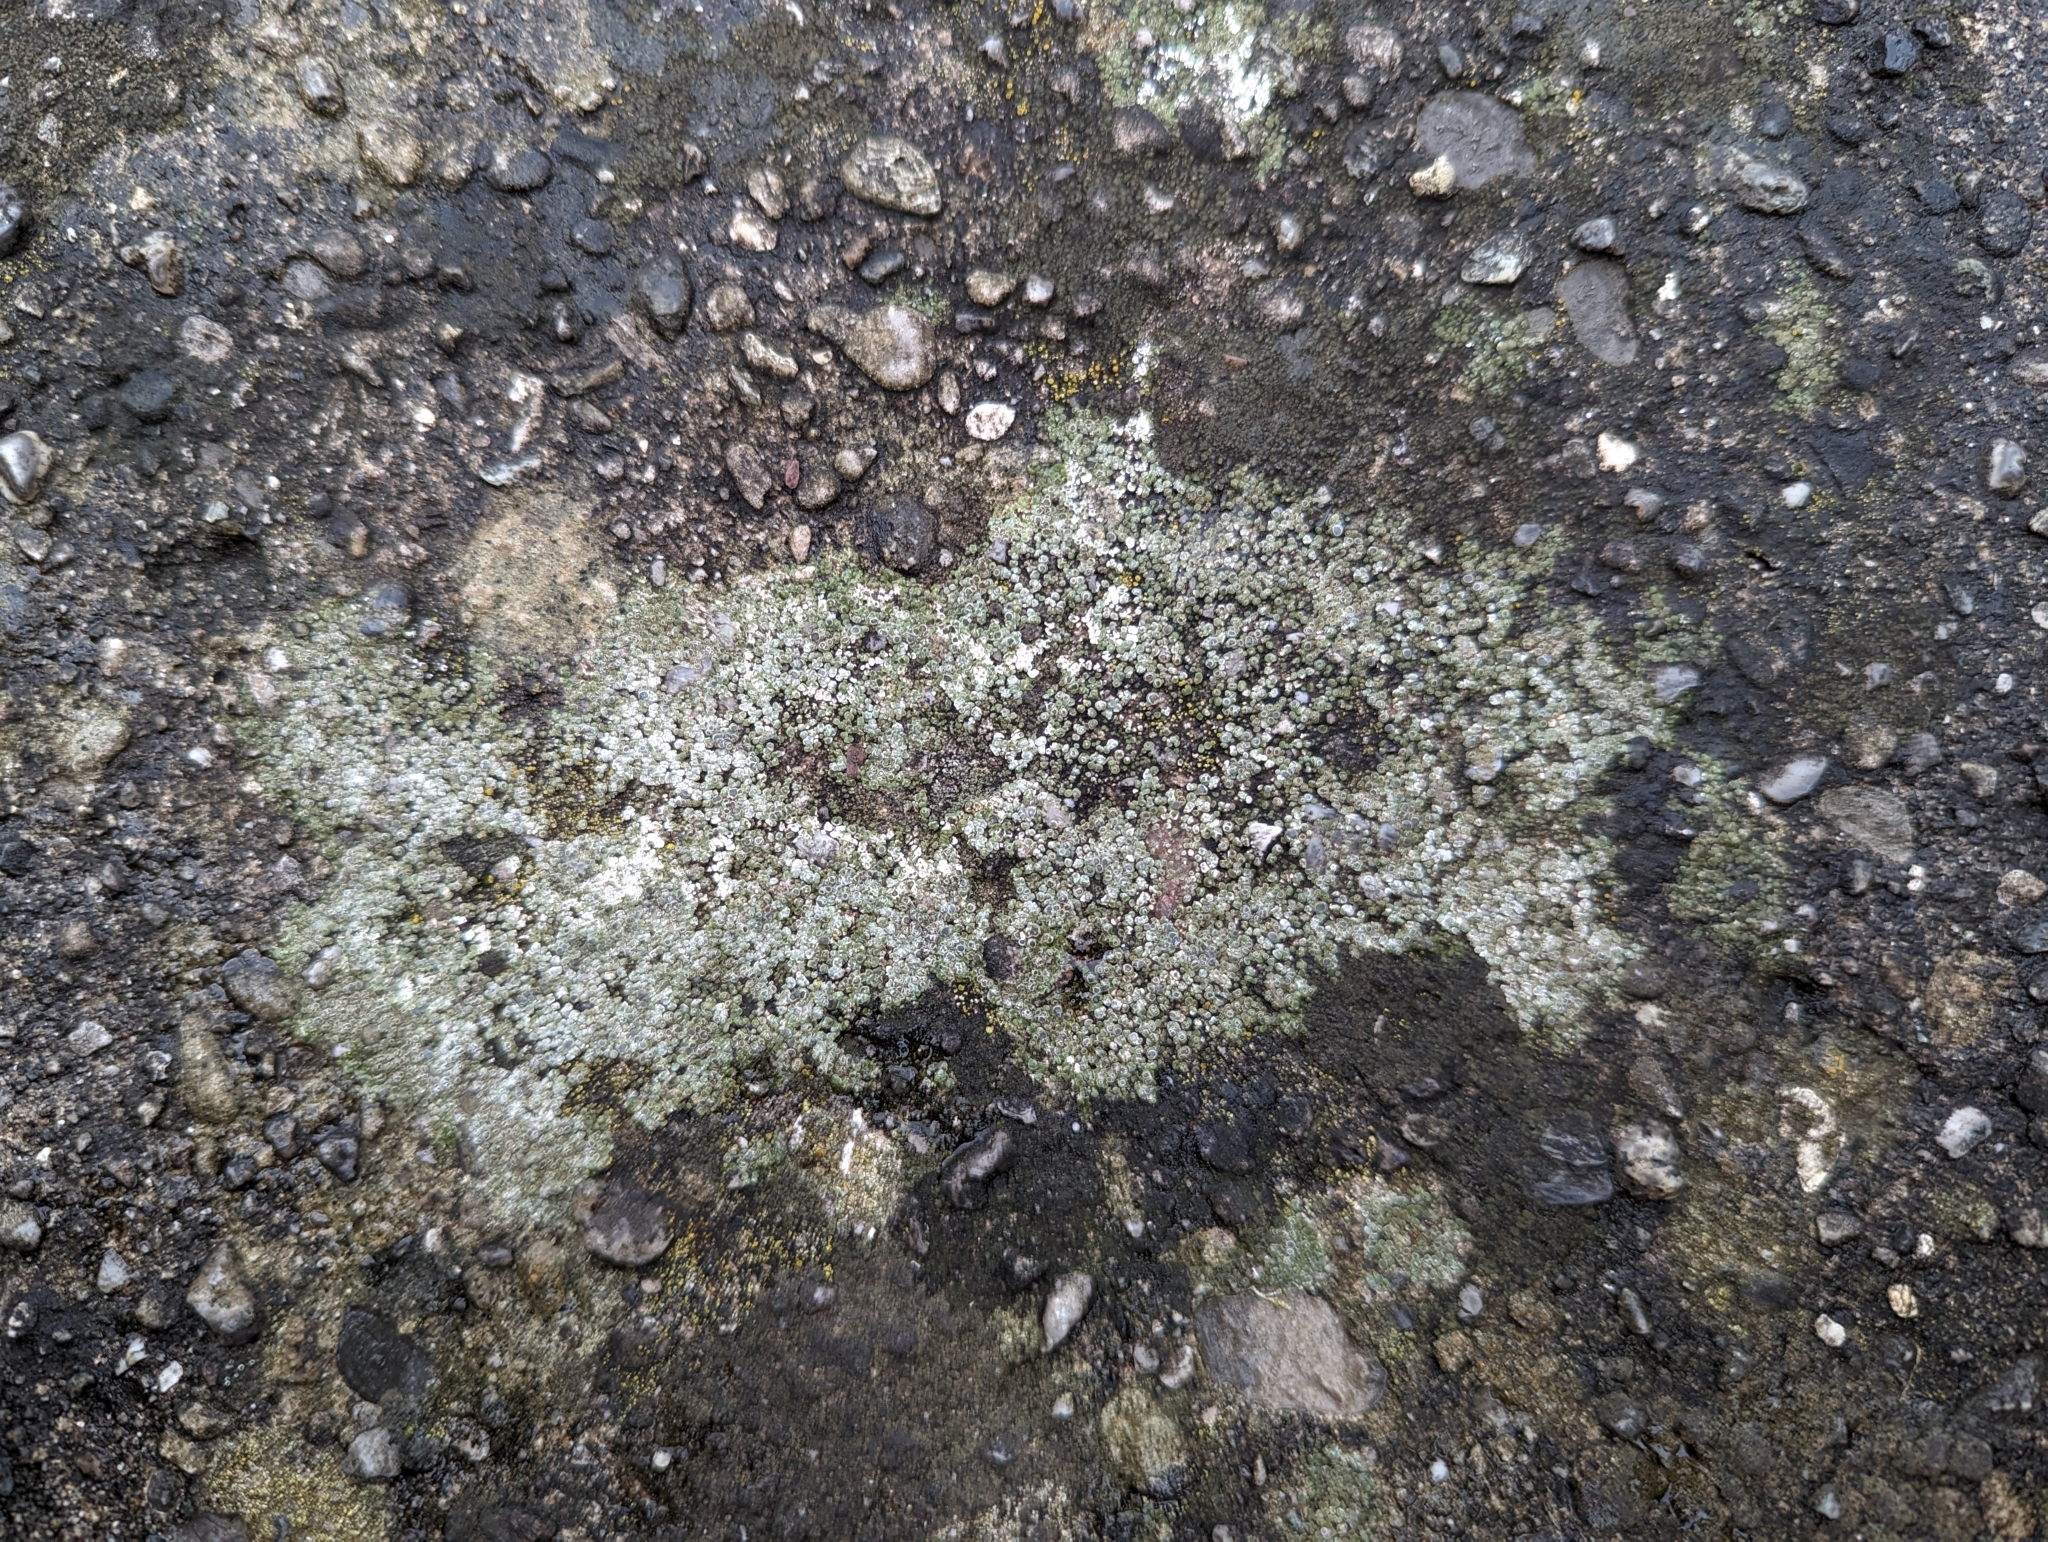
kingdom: Fungi
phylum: Ascomycota
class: Lecanoromycetes
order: Pertusariales
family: Megasporaceae
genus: Circinaria
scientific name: Circinaria contorta
